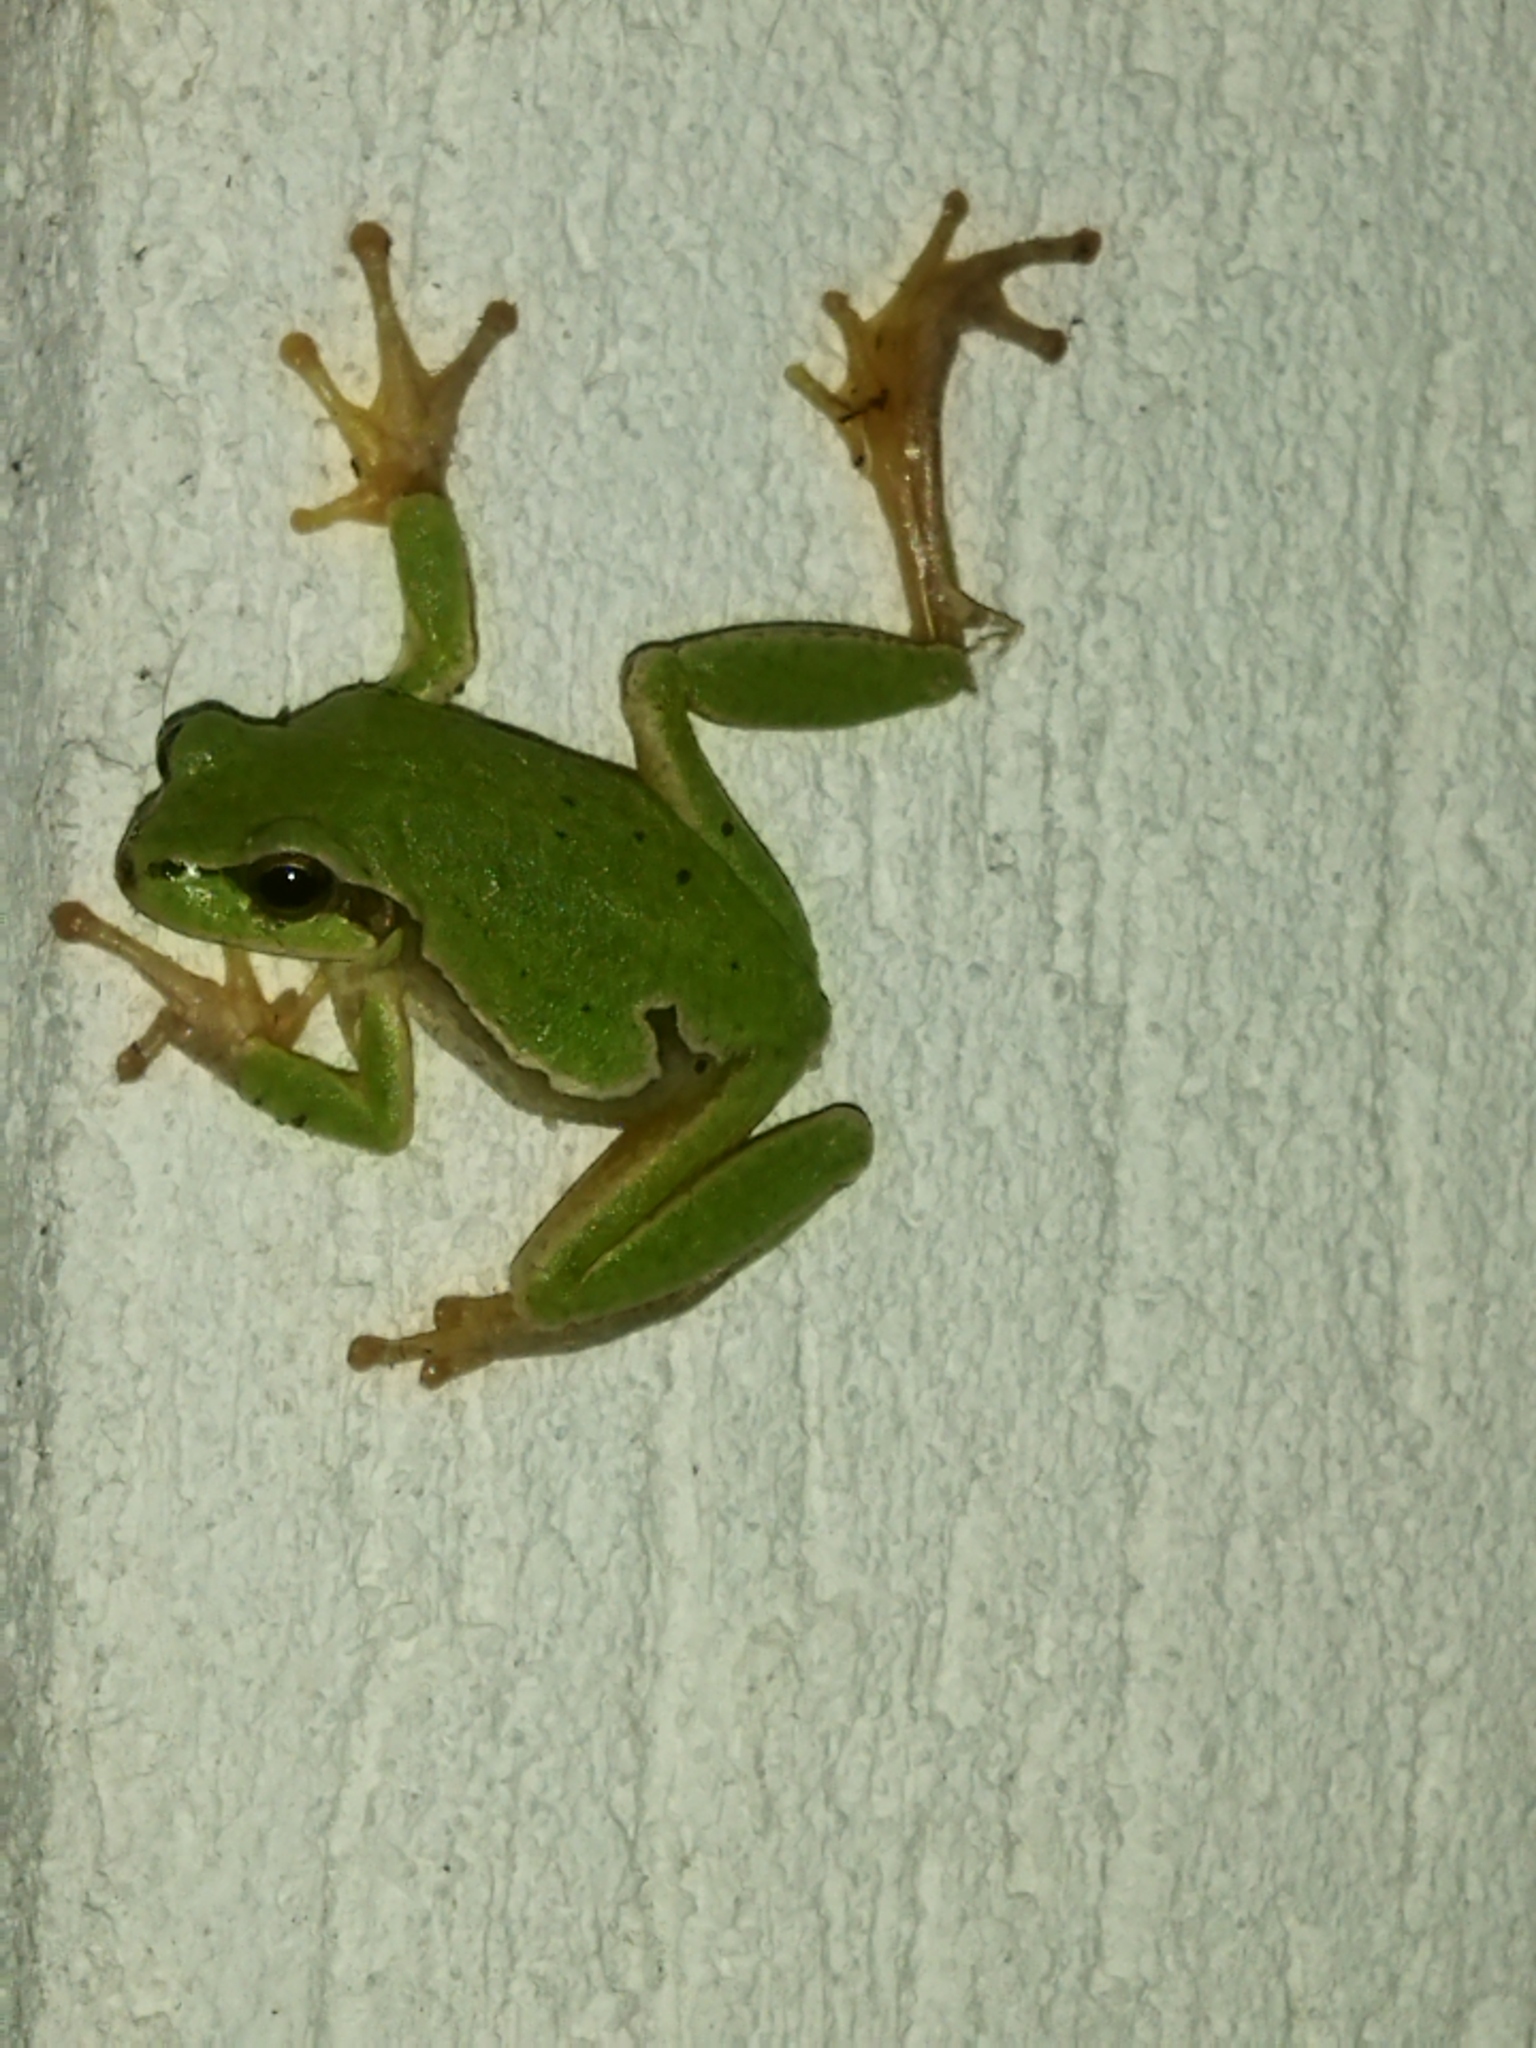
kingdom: Animalia
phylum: Chordata
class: Amphibia
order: Anura
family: Hylidae
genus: Hyla
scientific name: Hyla orientalis
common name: Caucasian treefrog
